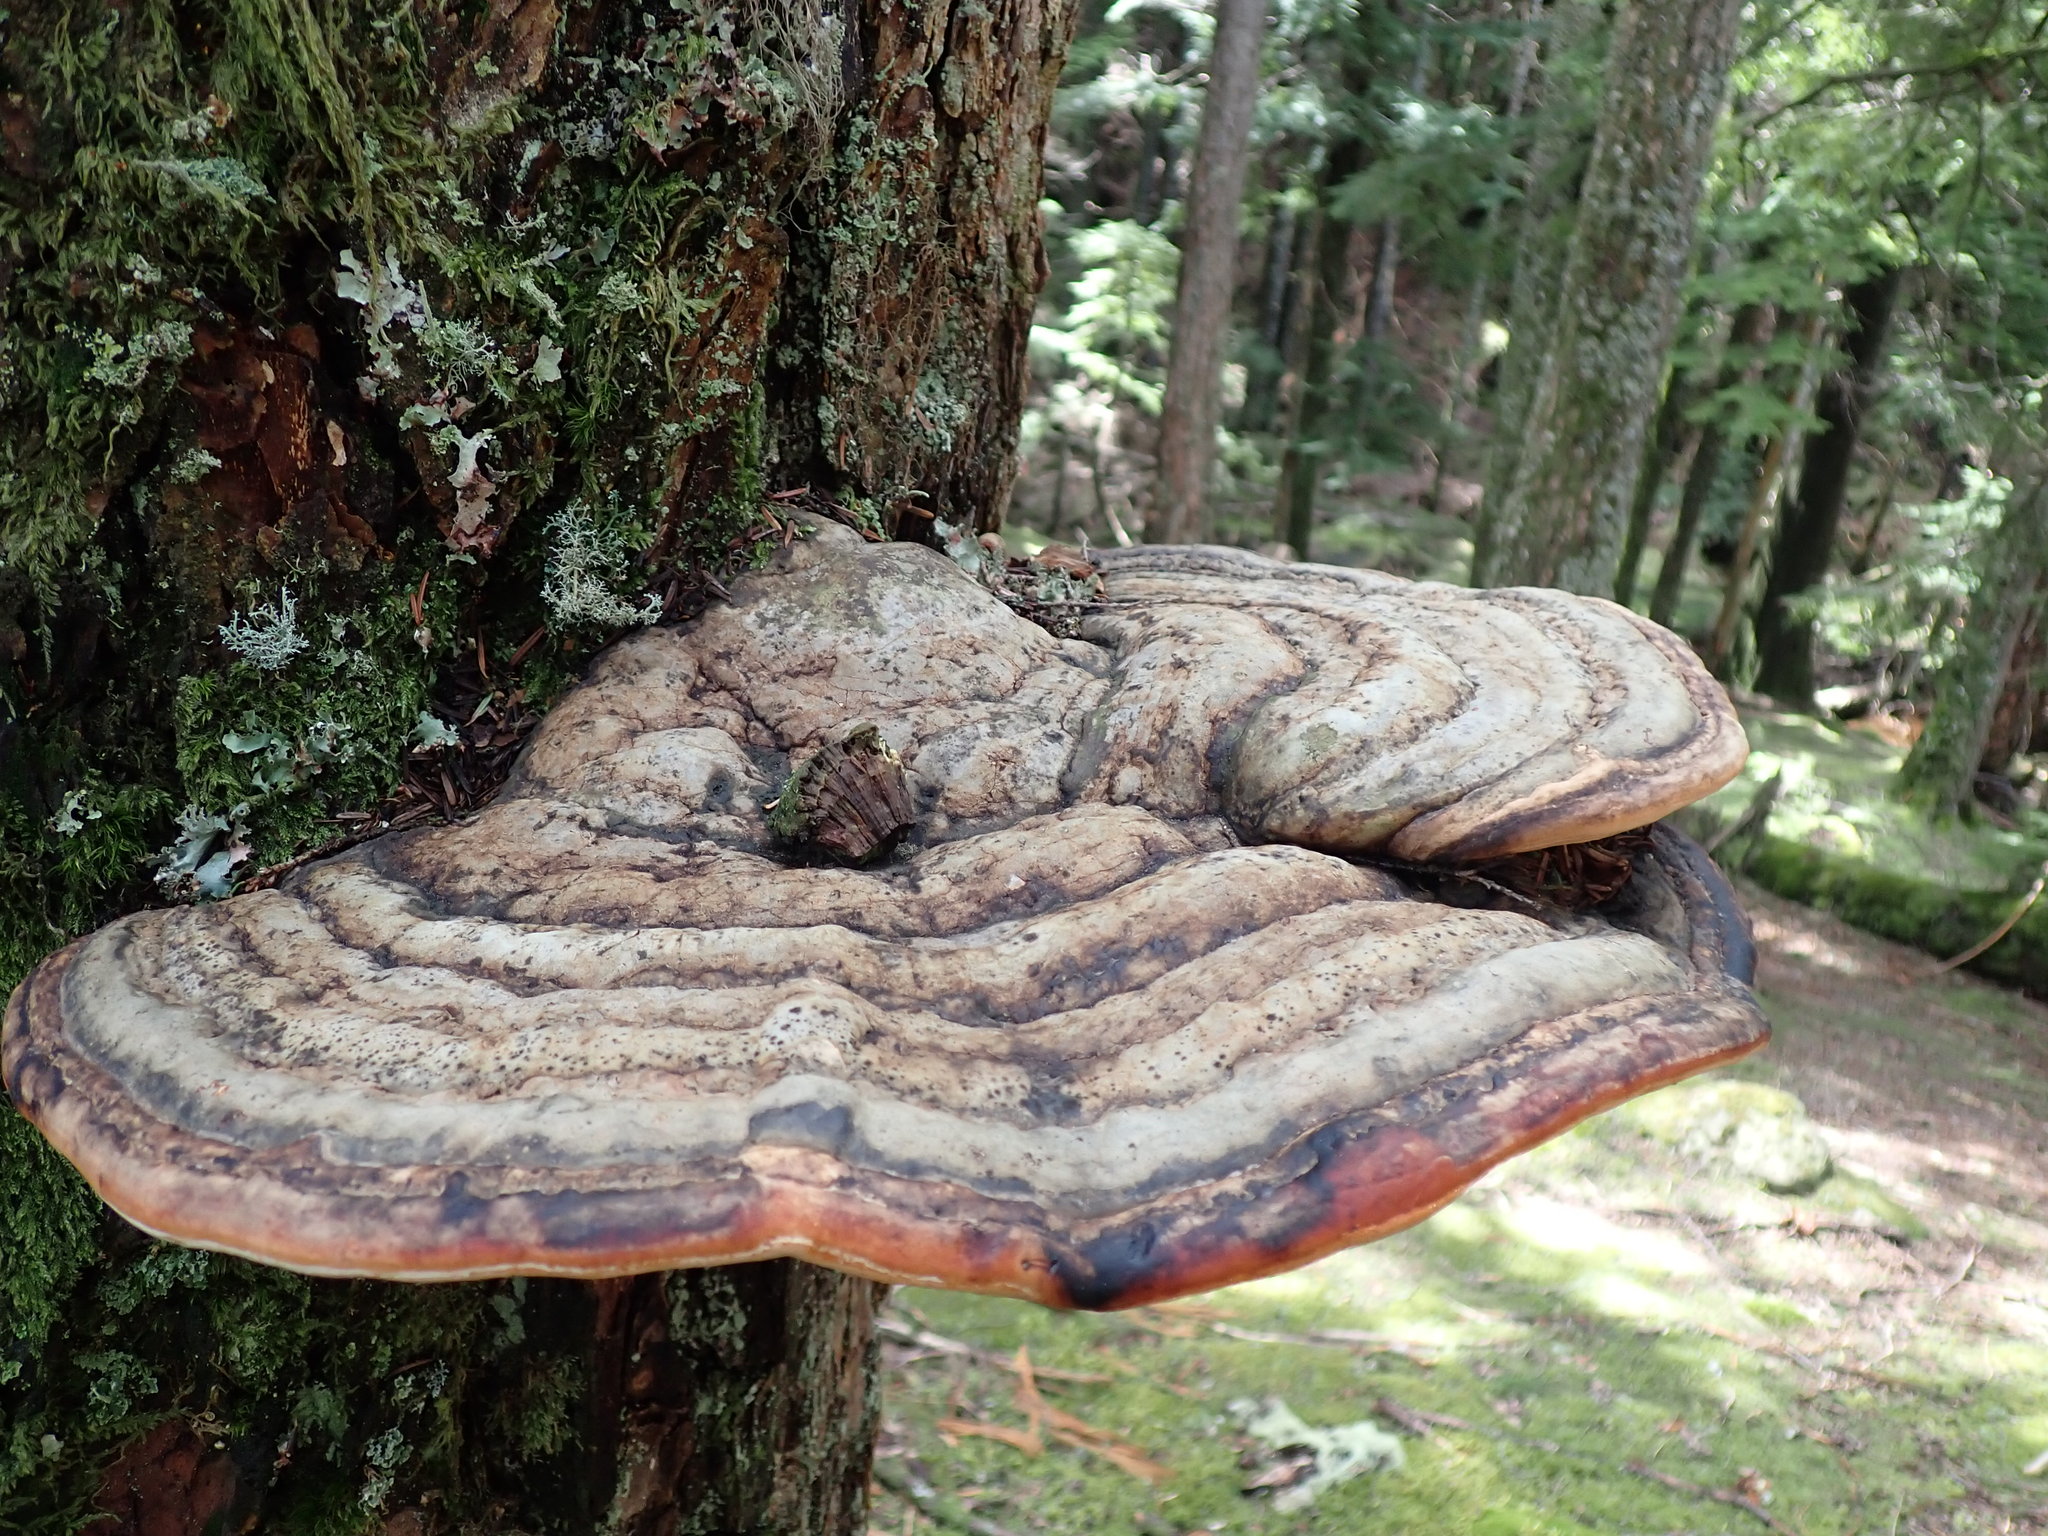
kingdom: Fungi
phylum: Basidiomycota
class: Agaricomycetes
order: Polyporales
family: Fomitopsidaceae
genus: Fomitopsis
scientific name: Fomitopsis mounceae
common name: Northern red belt
